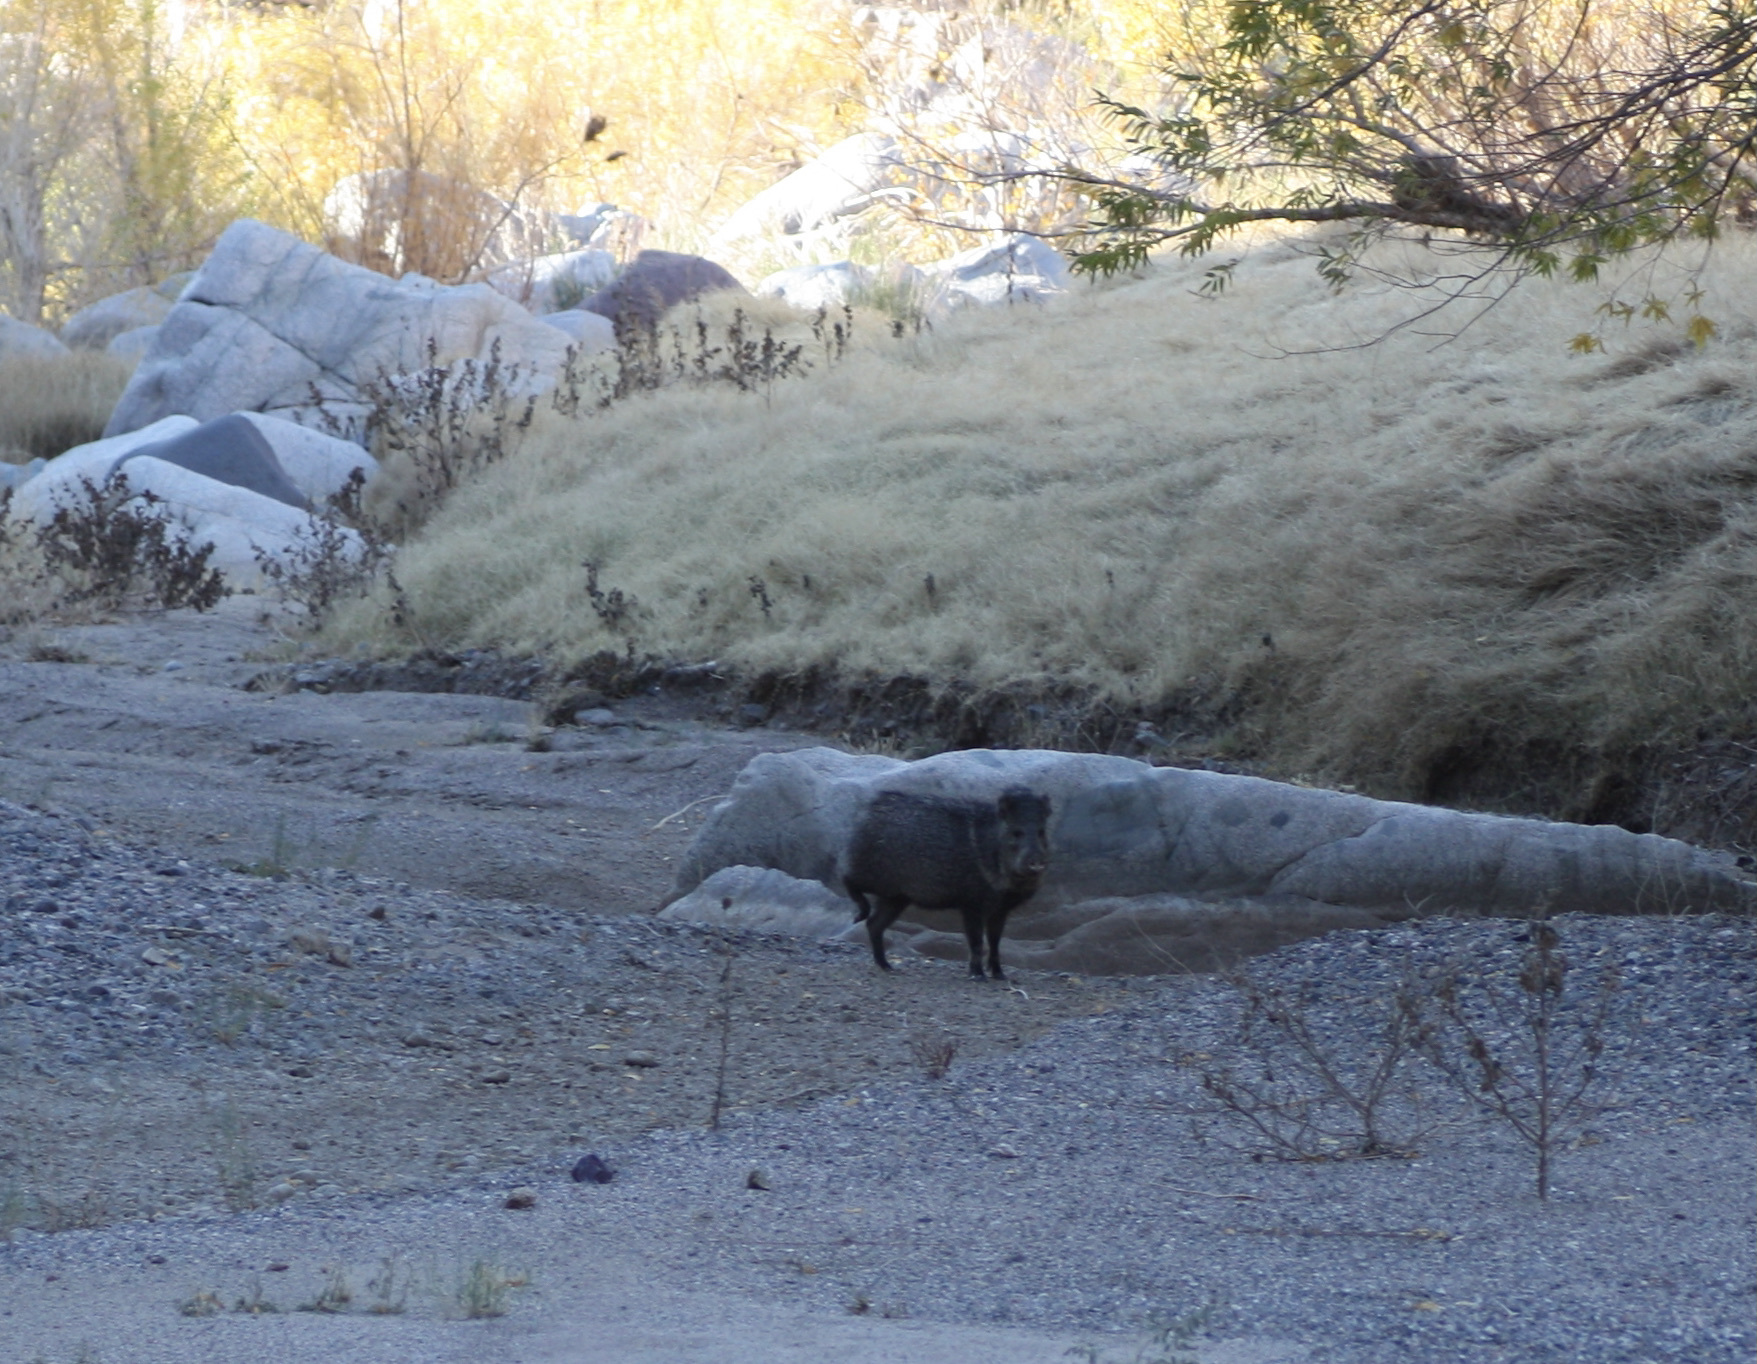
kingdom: Animalia
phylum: Chordata
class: Mammalia
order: Artiodactyla
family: Tayassuidae
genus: Pecari
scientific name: Pecari tajacu
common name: Collared peccary
